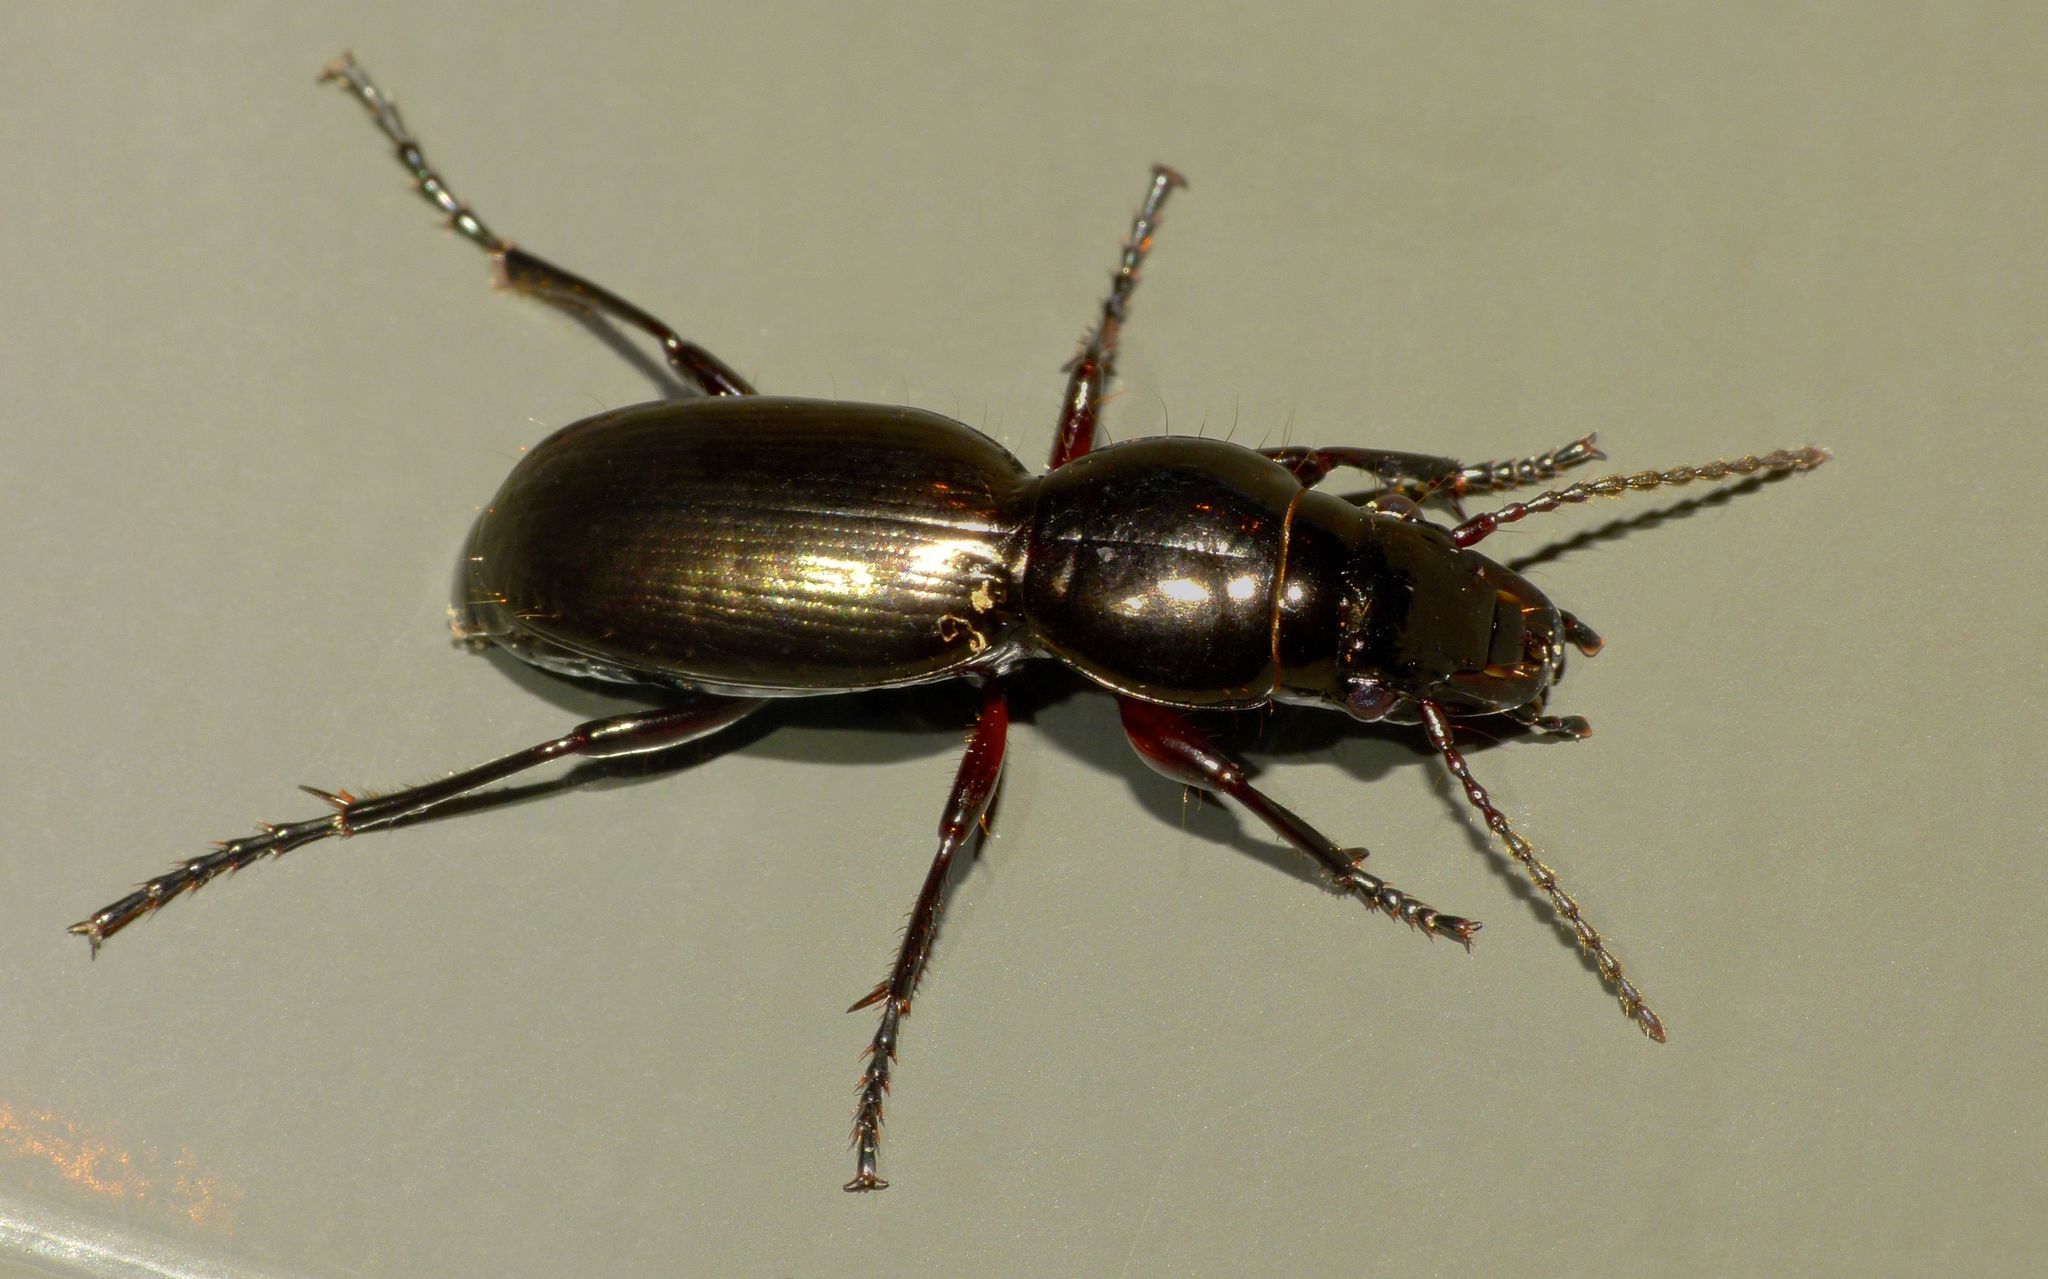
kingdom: Animalia
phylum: Arthropoda
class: Insecta
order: Coleoptera
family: Carabidae
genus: Oregus
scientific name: Oregus aereus
